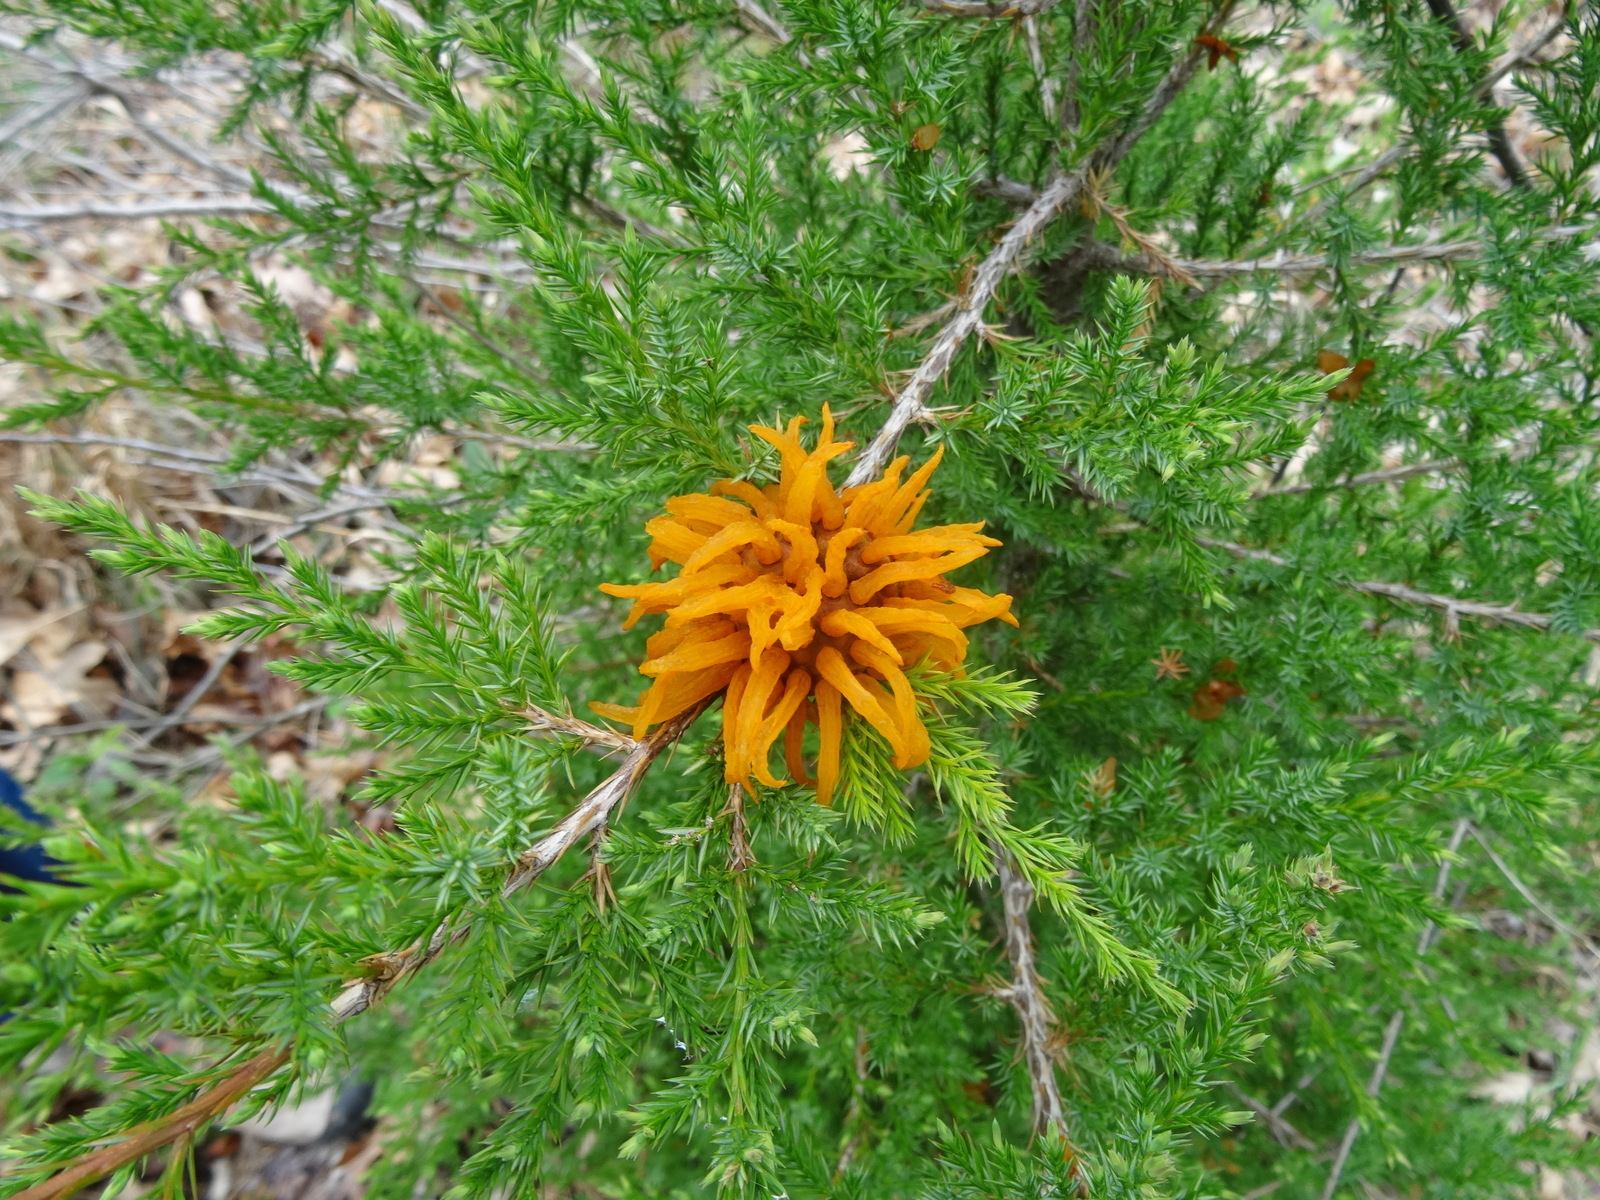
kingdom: Fungi
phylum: Basidiomycota
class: Pucciniomycetes
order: Pucciniales
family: Gymnosporangiaceae
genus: Gymnosporangium
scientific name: Gymnosporangium juniperi-virginianae
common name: Juniper-apple rust
